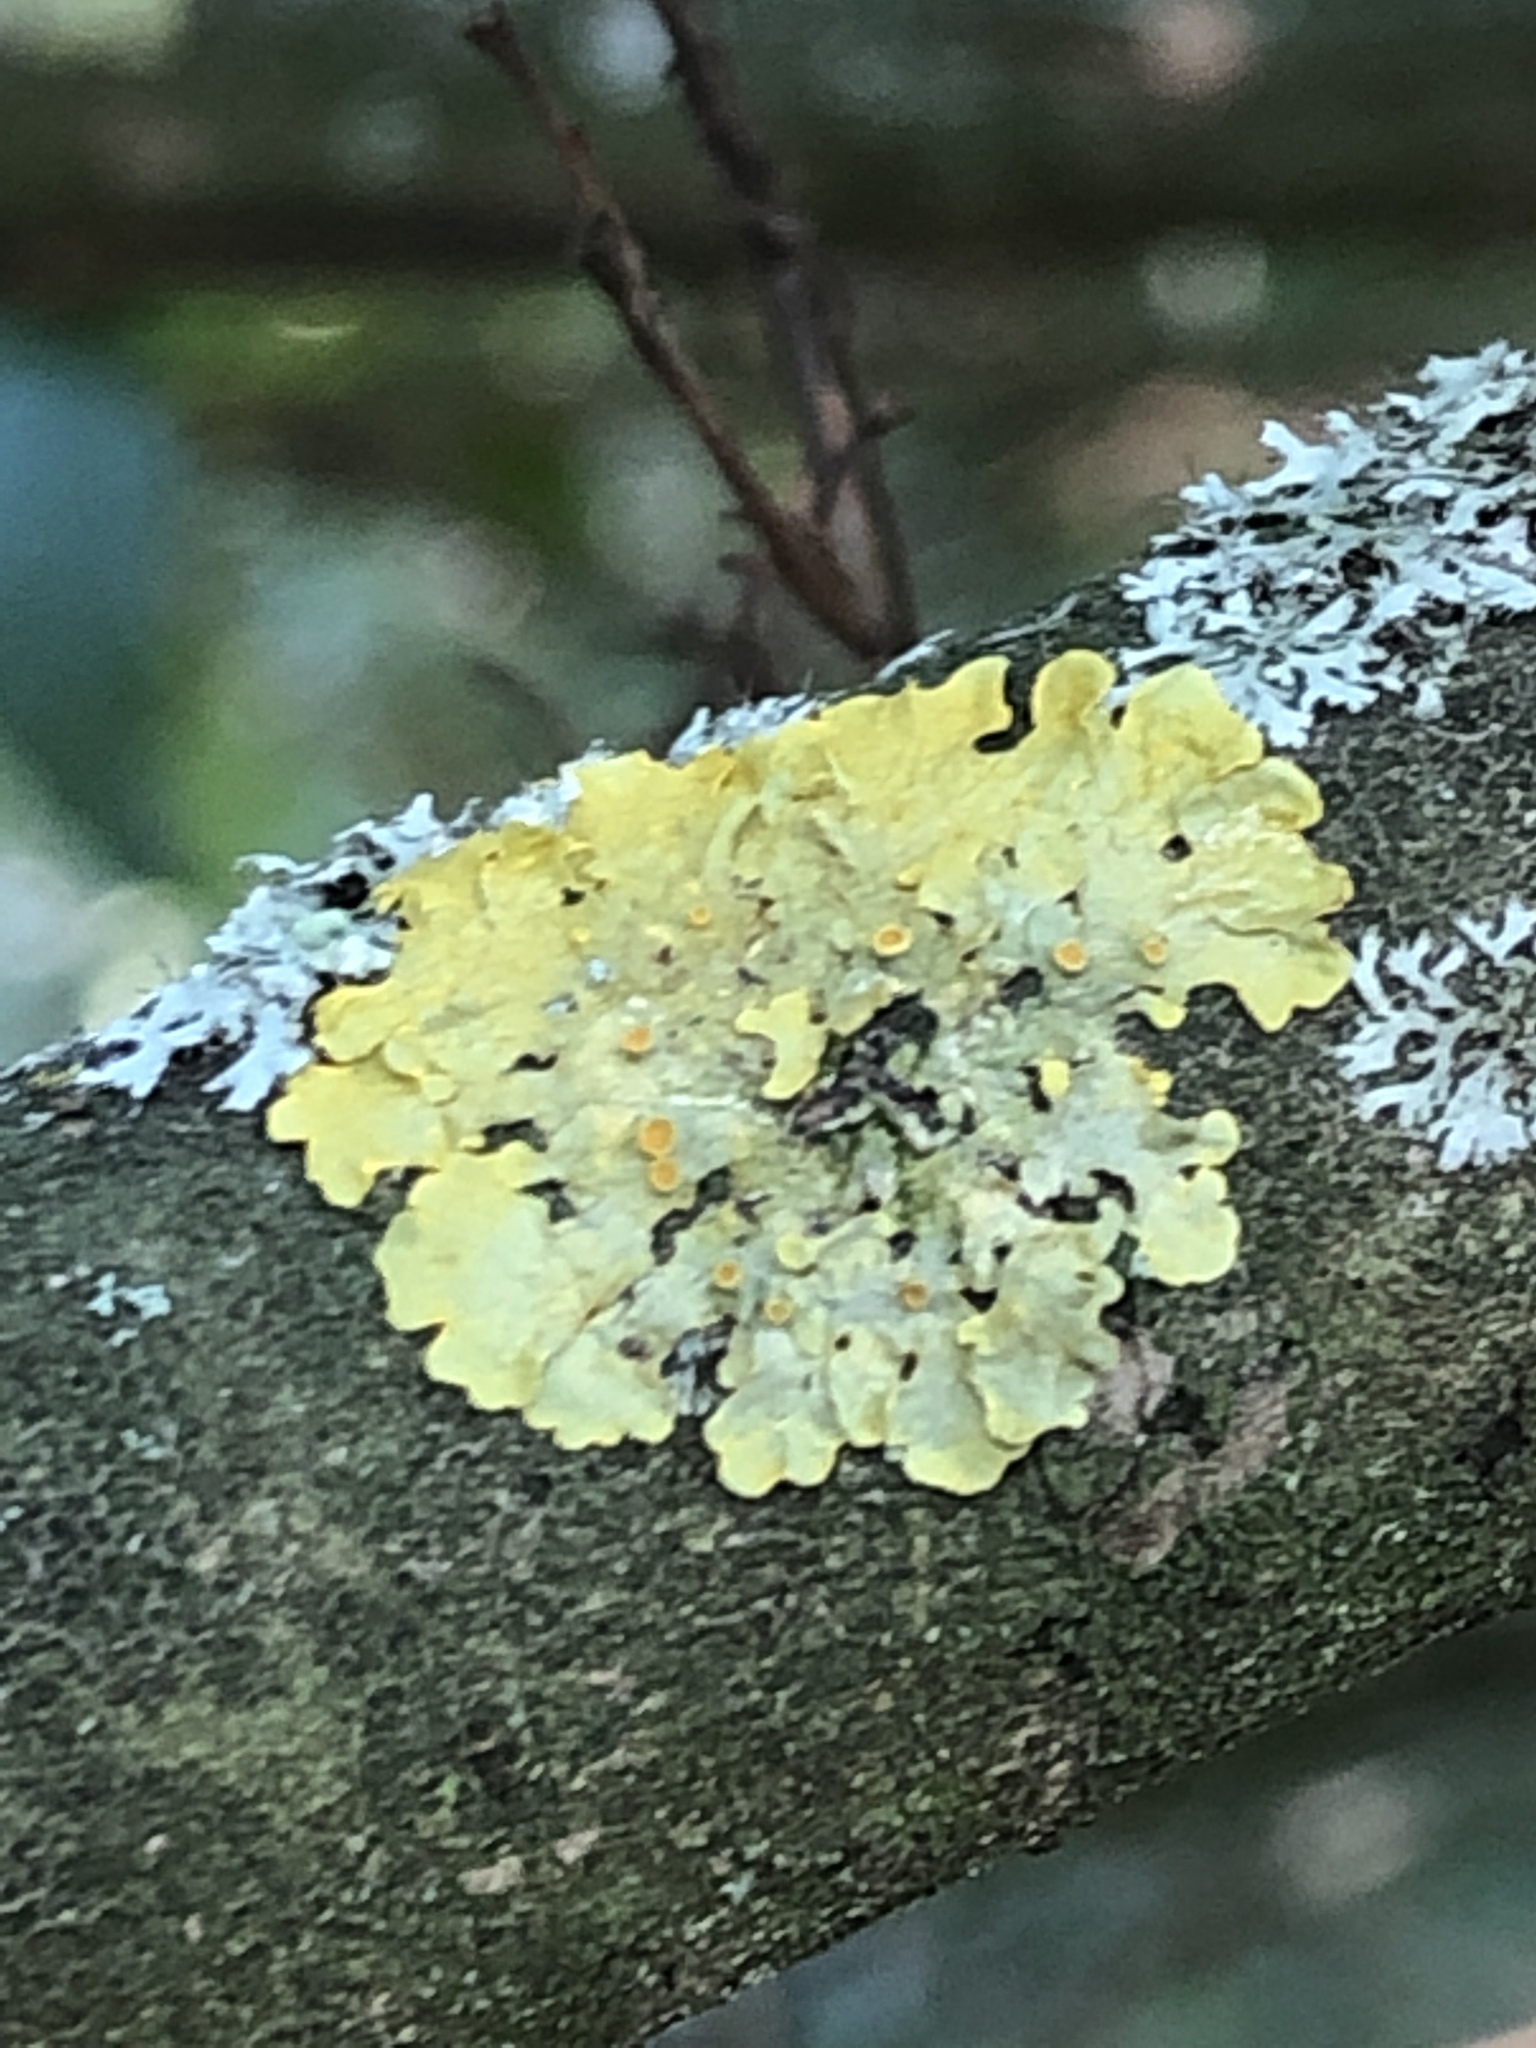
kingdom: Fungi
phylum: Ascomycota
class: Lecanoromycetes
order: Teloschistales
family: Teloschistaceae
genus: Xanthoria
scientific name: Xanthoria parietina
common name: Common orange lichen
